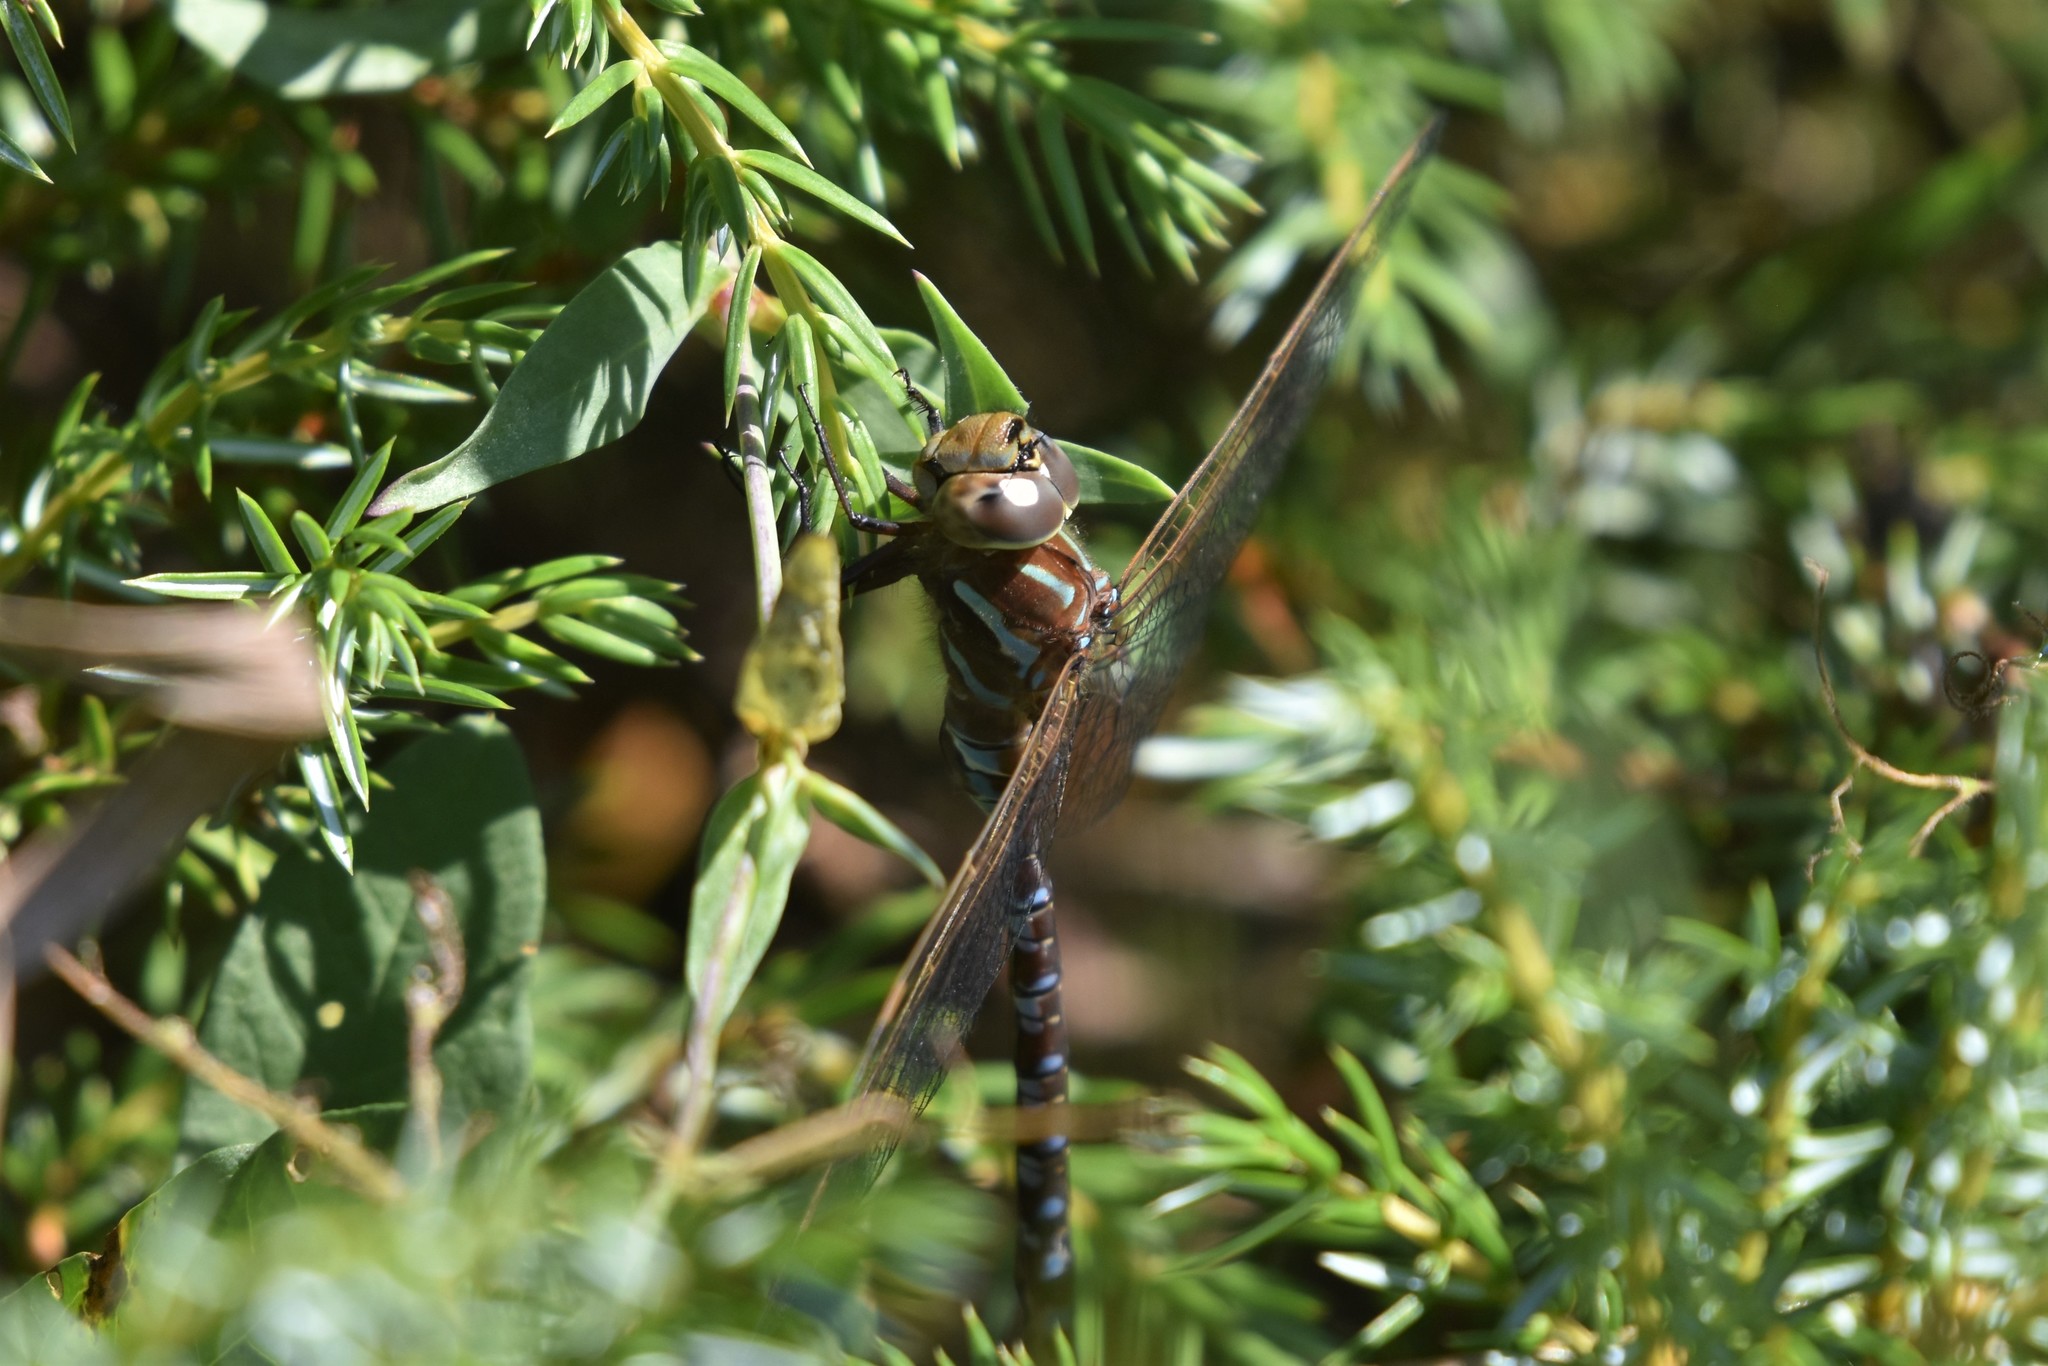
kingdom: Animalia
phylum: Arthropoda
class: Insecta
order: Odonata
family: Aeshnidae
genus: Aeshna
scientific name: Aeshna constricta
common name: Lance-tipped darner
